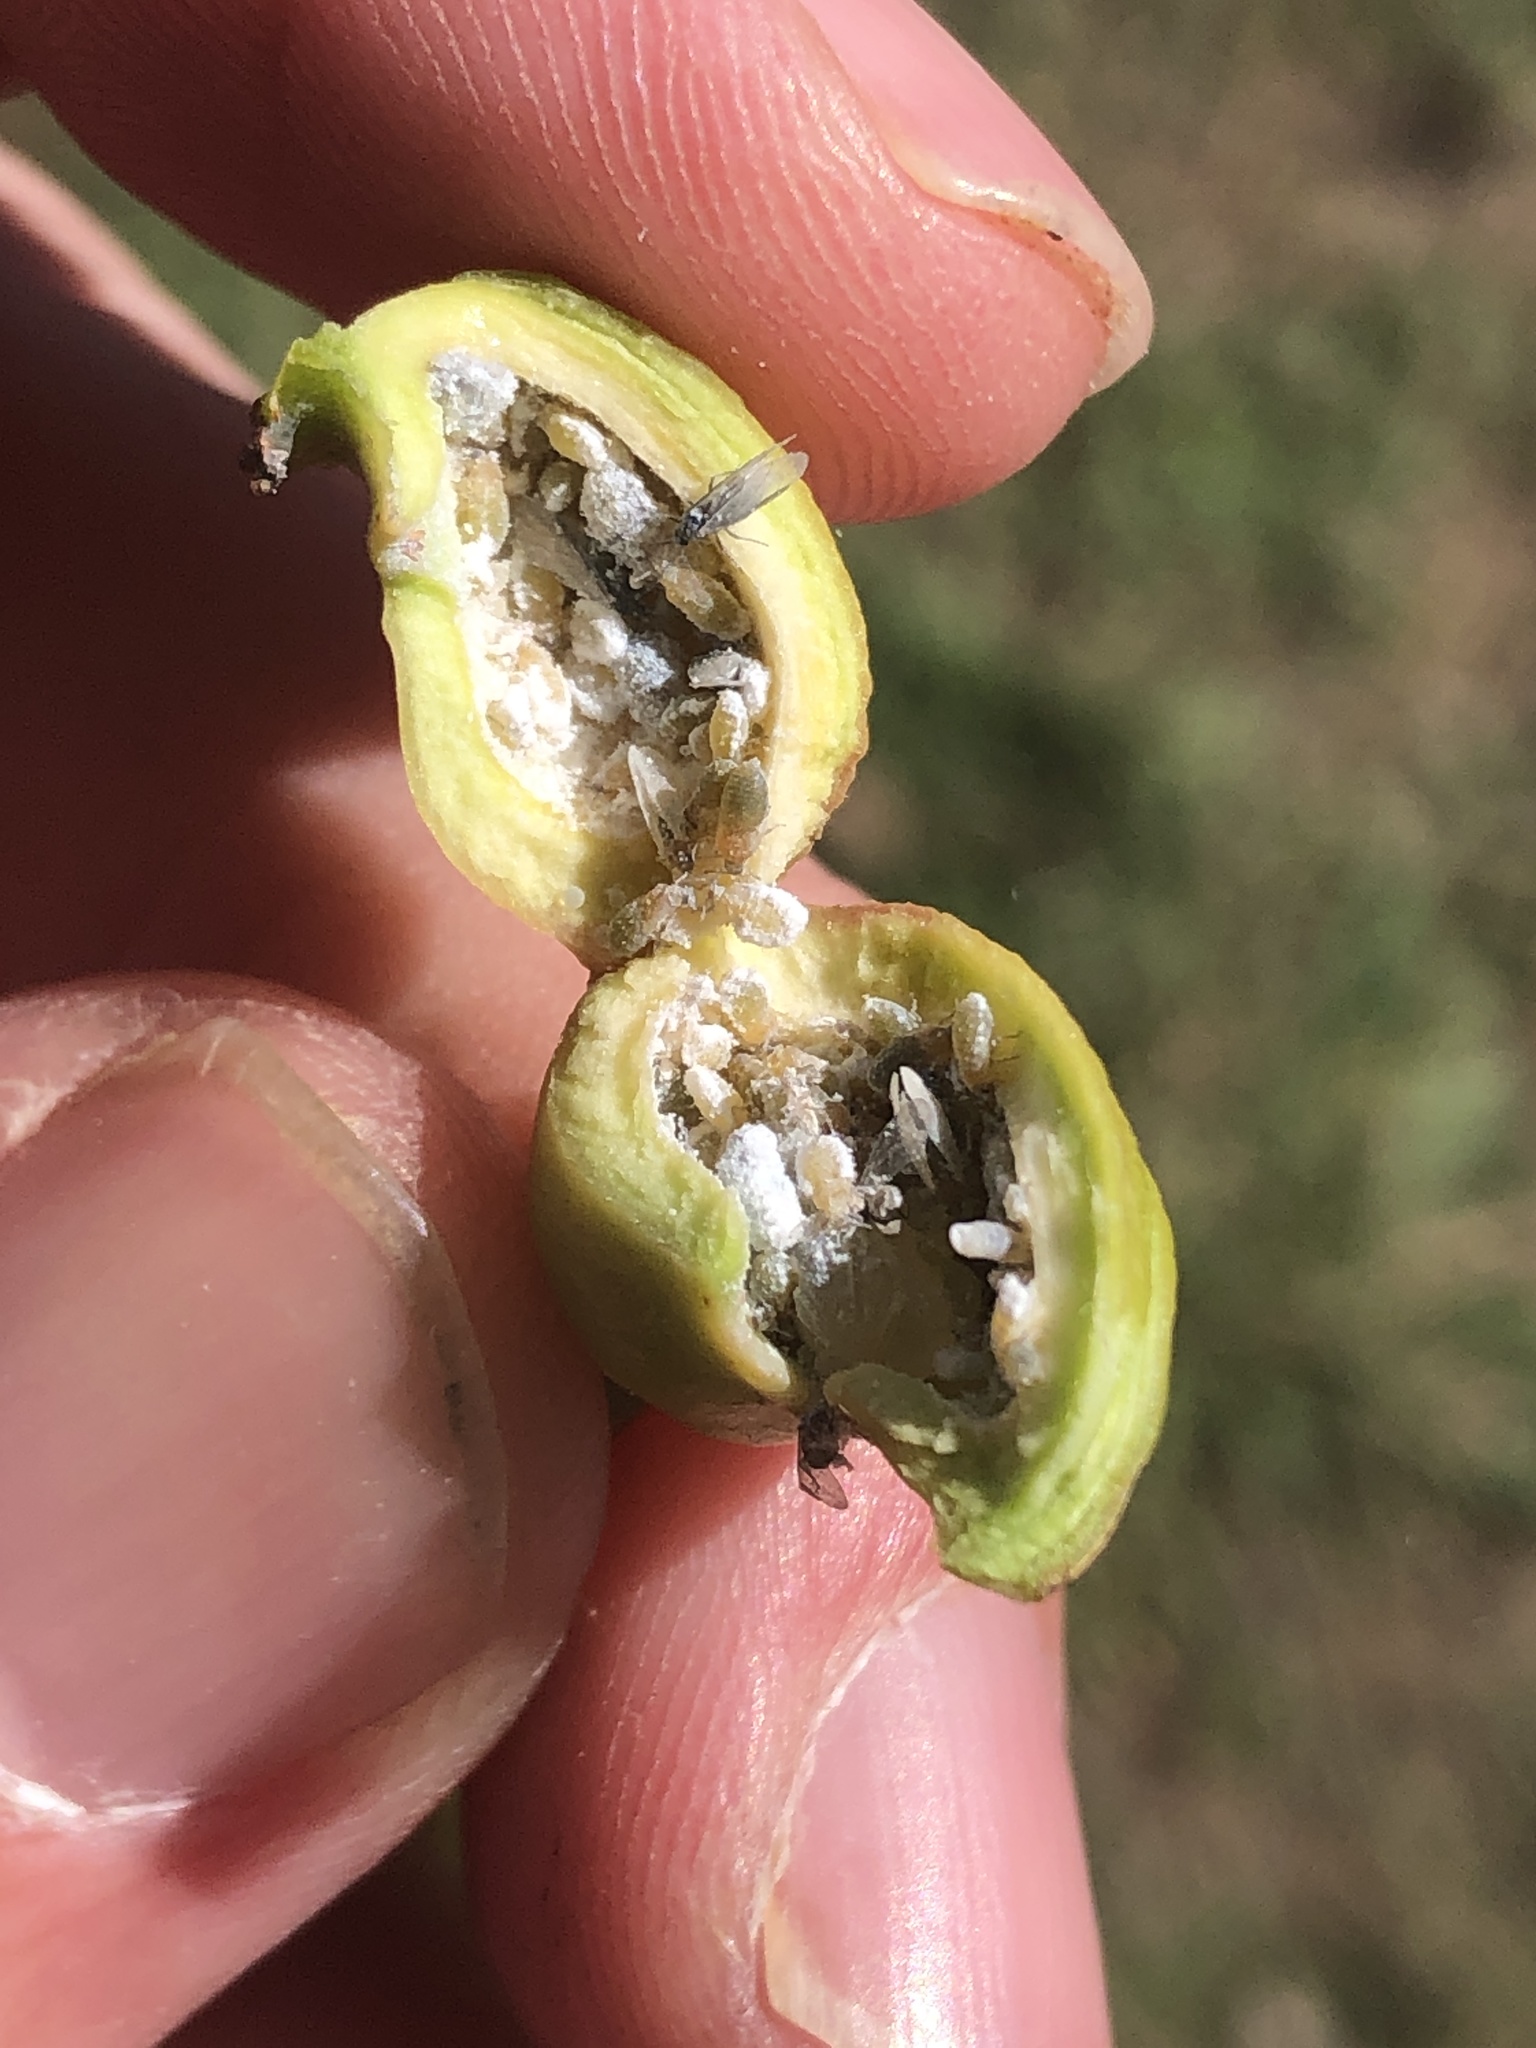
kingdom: Animalia
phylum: Arthropoda
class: Insecta
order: Hemiptera
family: Aphididae
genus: Pemphigus
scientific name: Pemphigus populitransversus
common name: Poplar petiolegall aphid
